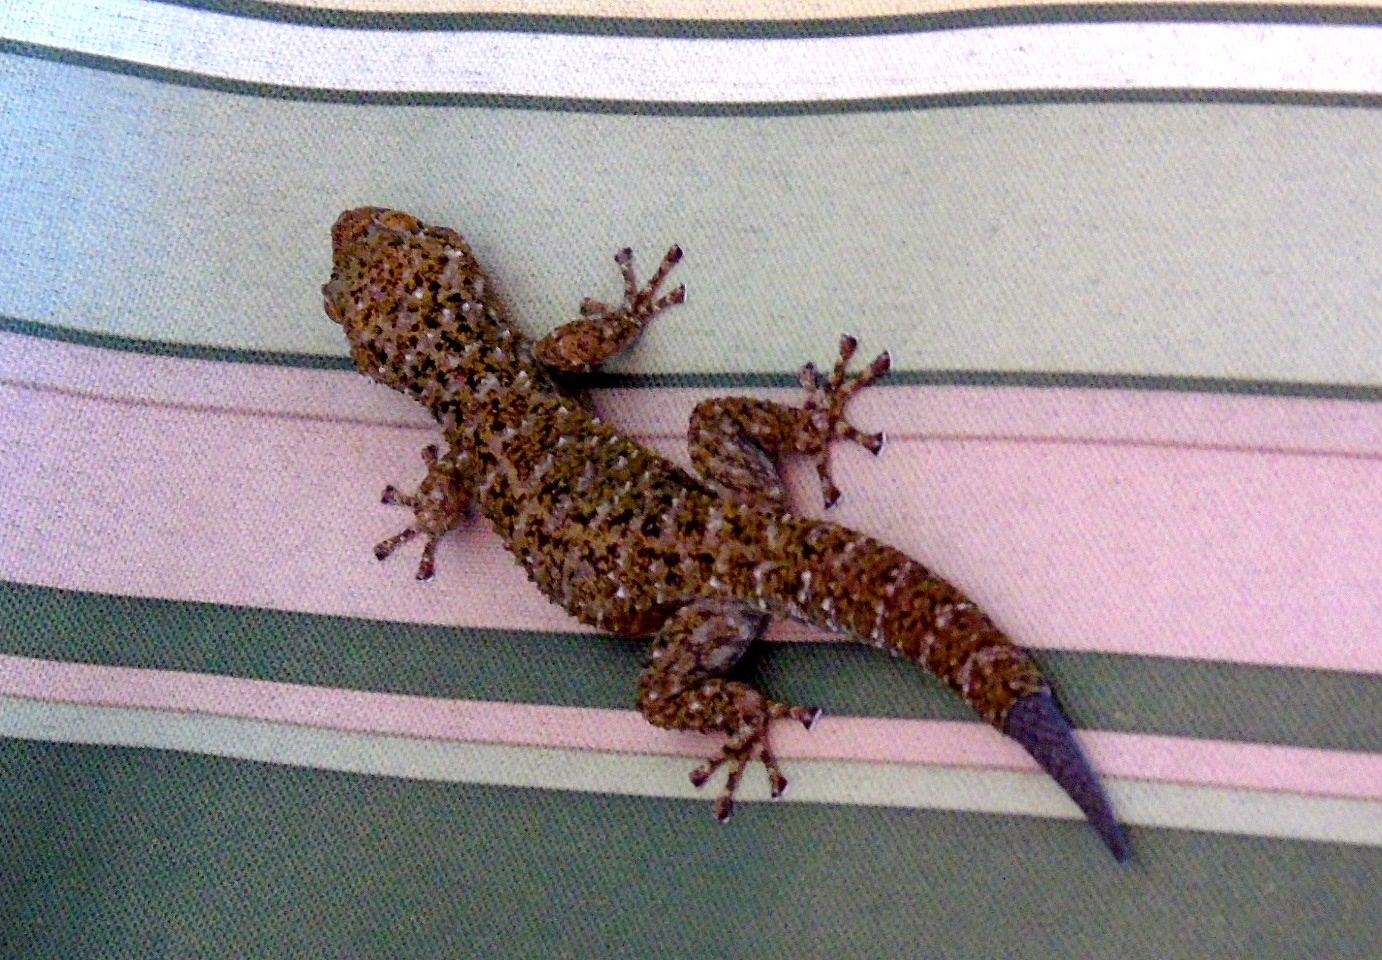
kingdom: Animalia
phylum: Chordata
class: Squamata
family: Phyllodactylidae
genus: Phyllodactylus
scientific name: Phyllodactylus tuberculosus
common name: Yellowbelly  gecko
